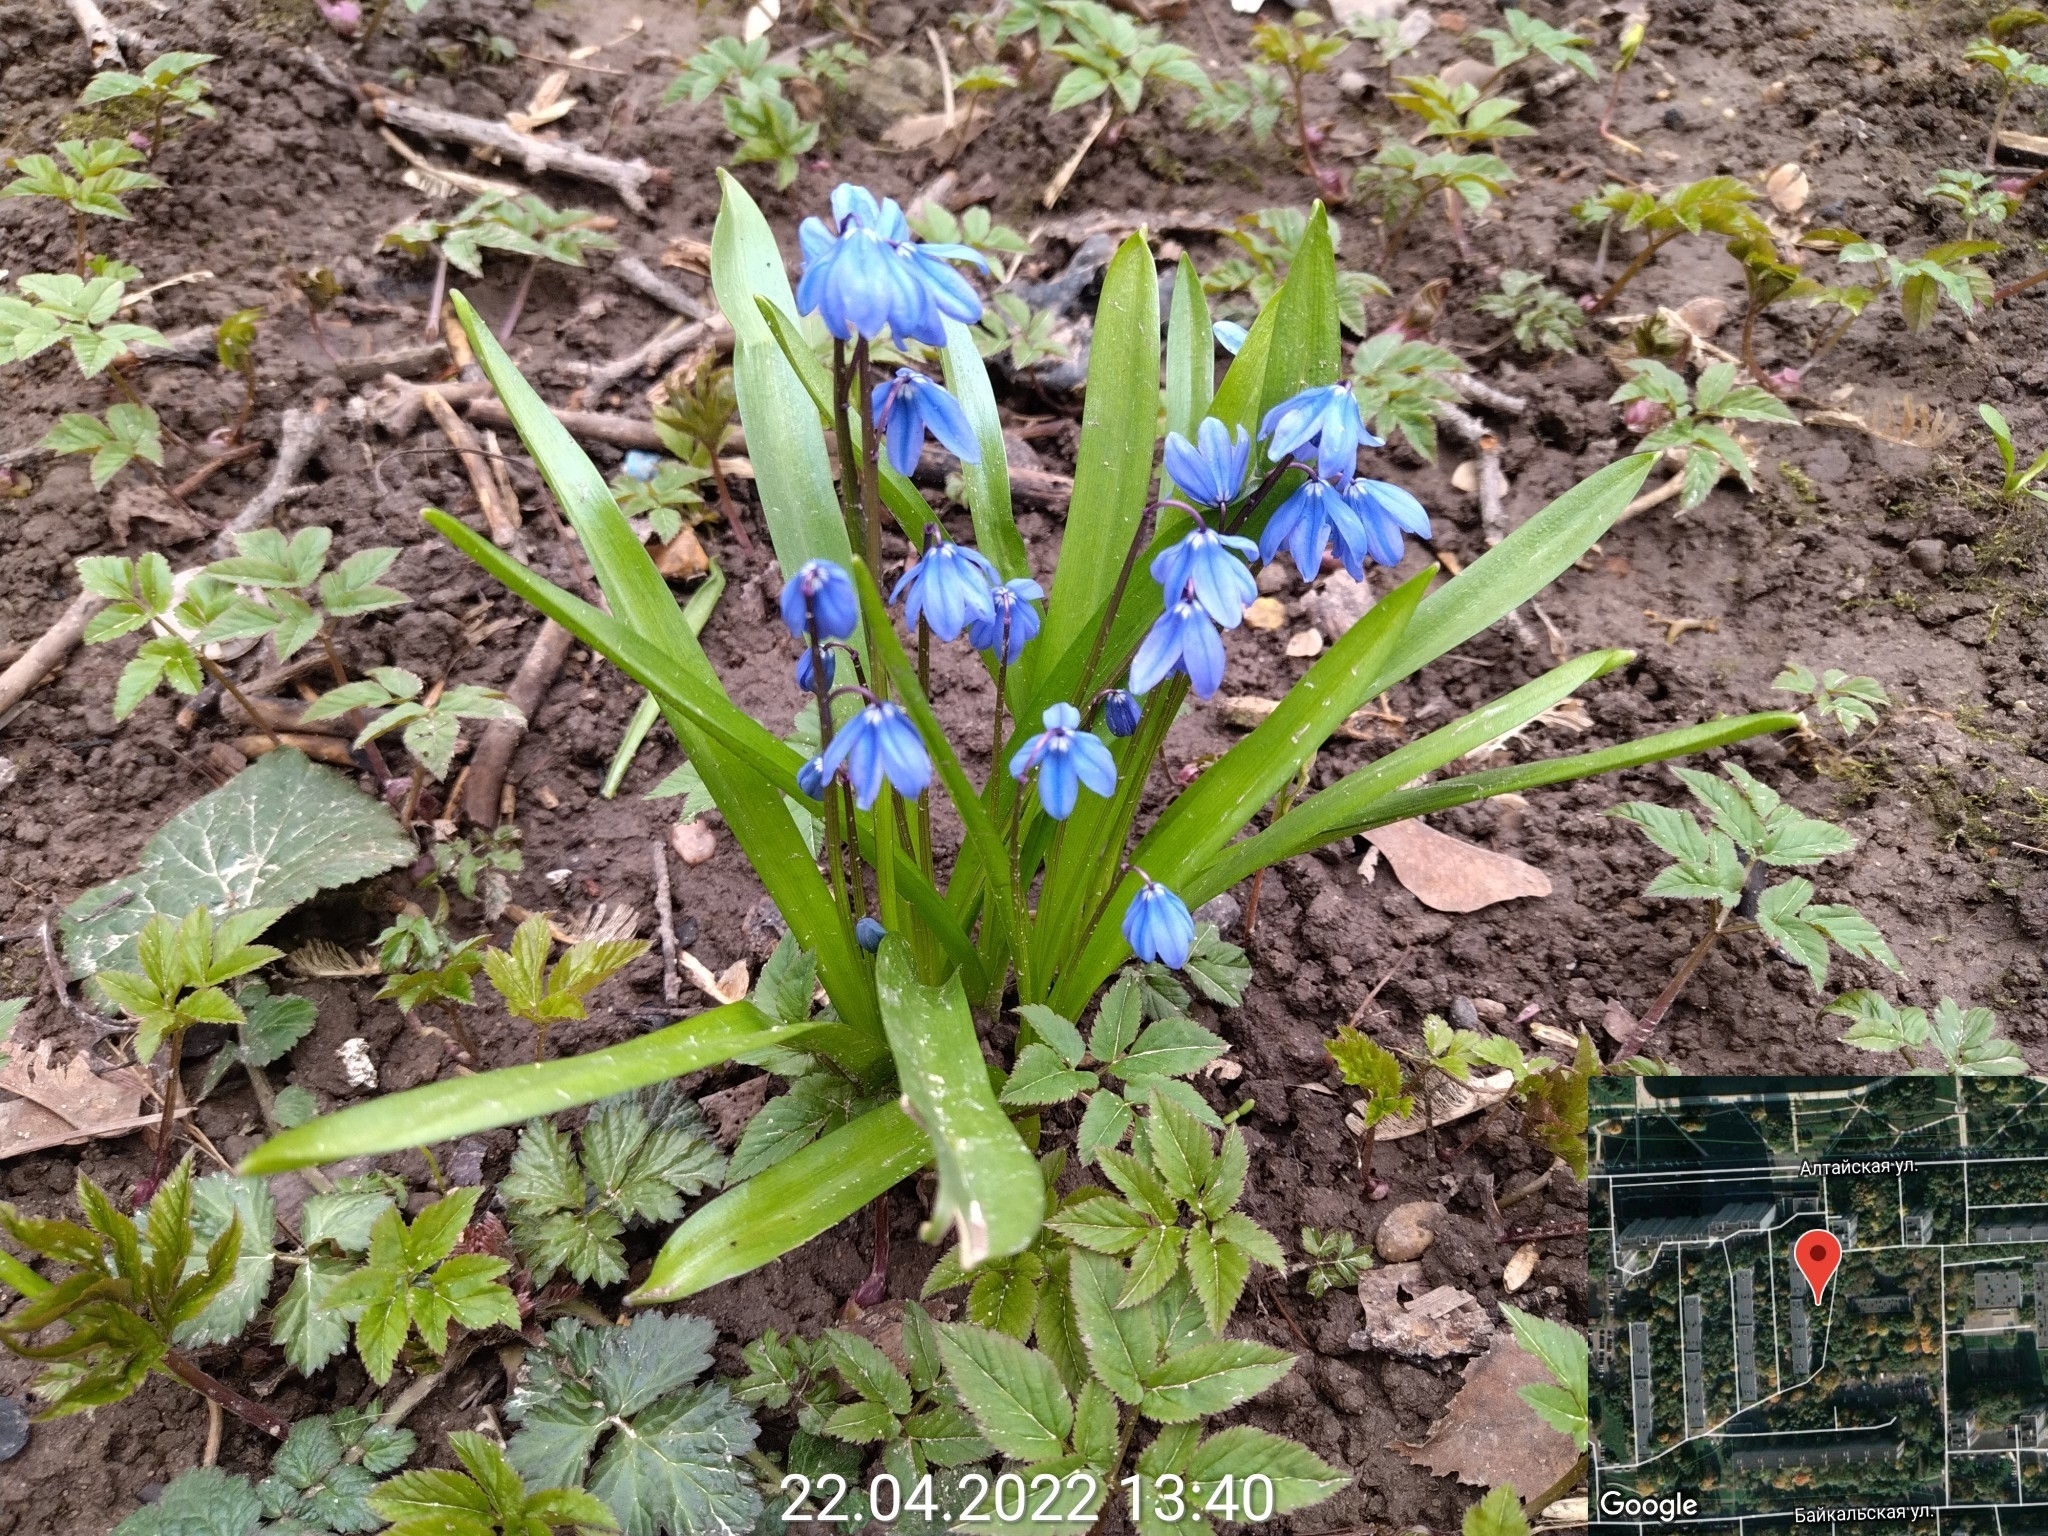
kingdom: Plantae
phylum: Tracheophyta
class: Liliopsida
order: Asparagales
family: Asparagaceae
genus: Scilla
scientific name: Scilla siberica
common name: Siberian squill
